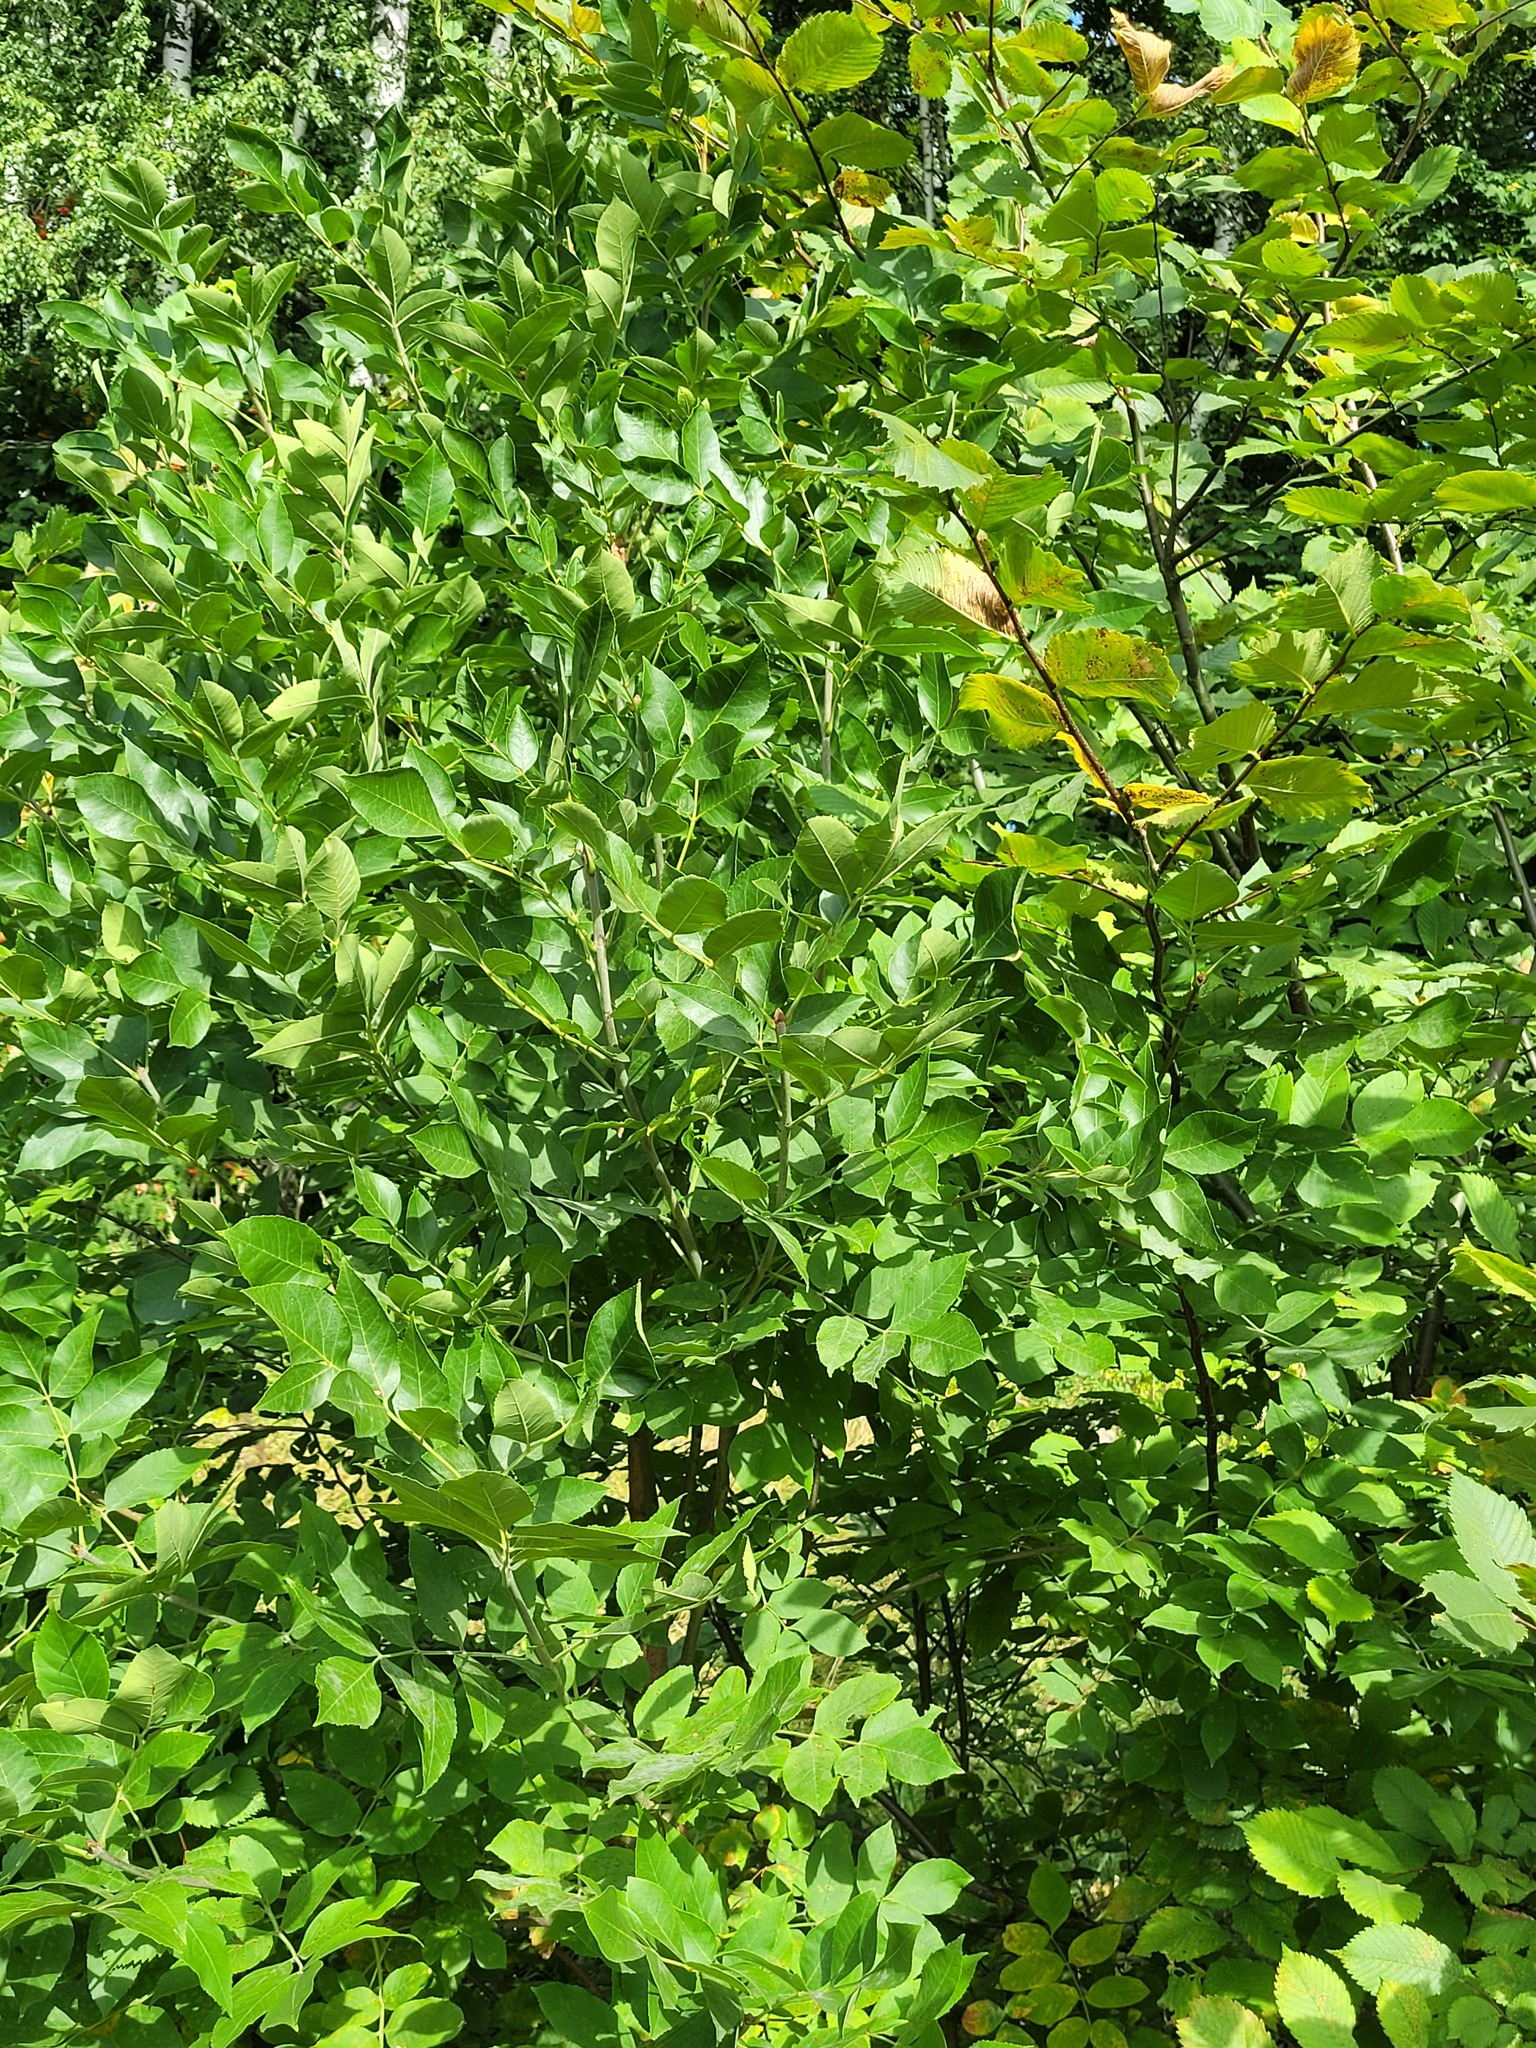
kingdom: Plantae
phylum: Tracheophyta
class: Magnoliopsida
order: Lamiales
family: Oleaceae
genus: Fraxinus
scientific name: Fraxinus pennsylvanica
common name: Green ash
